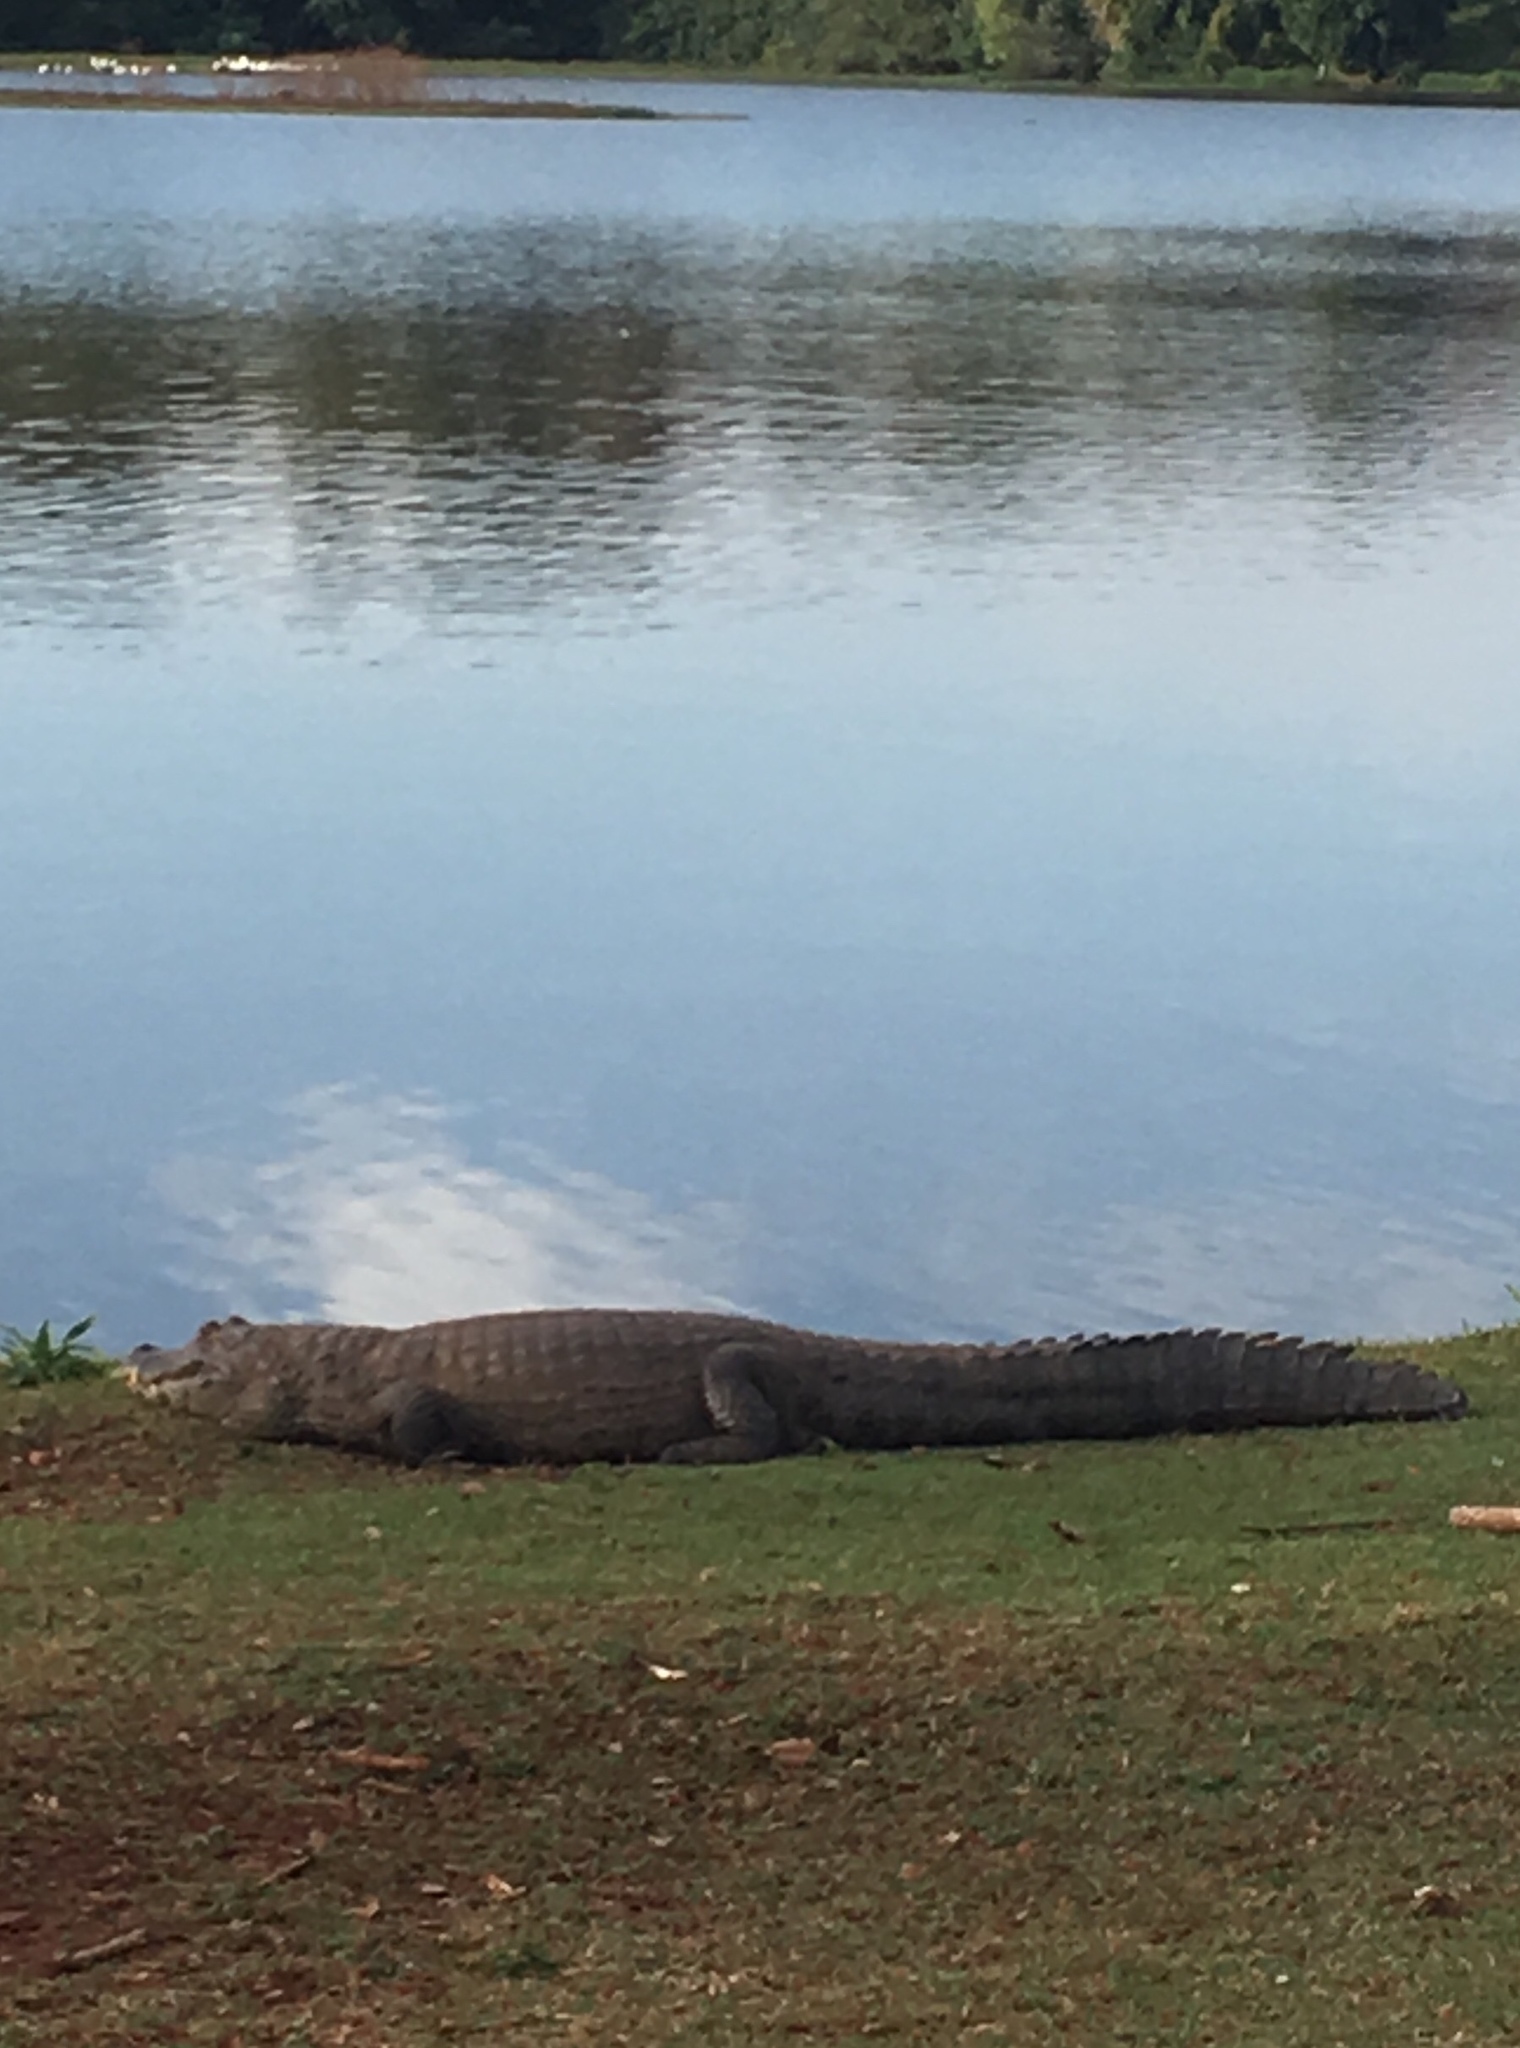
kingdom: Animalia
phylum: Chordata
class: Crocodylia
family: Alligatoridae
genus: Caiman
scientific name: Caiman yacare
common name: Yacare caiman
